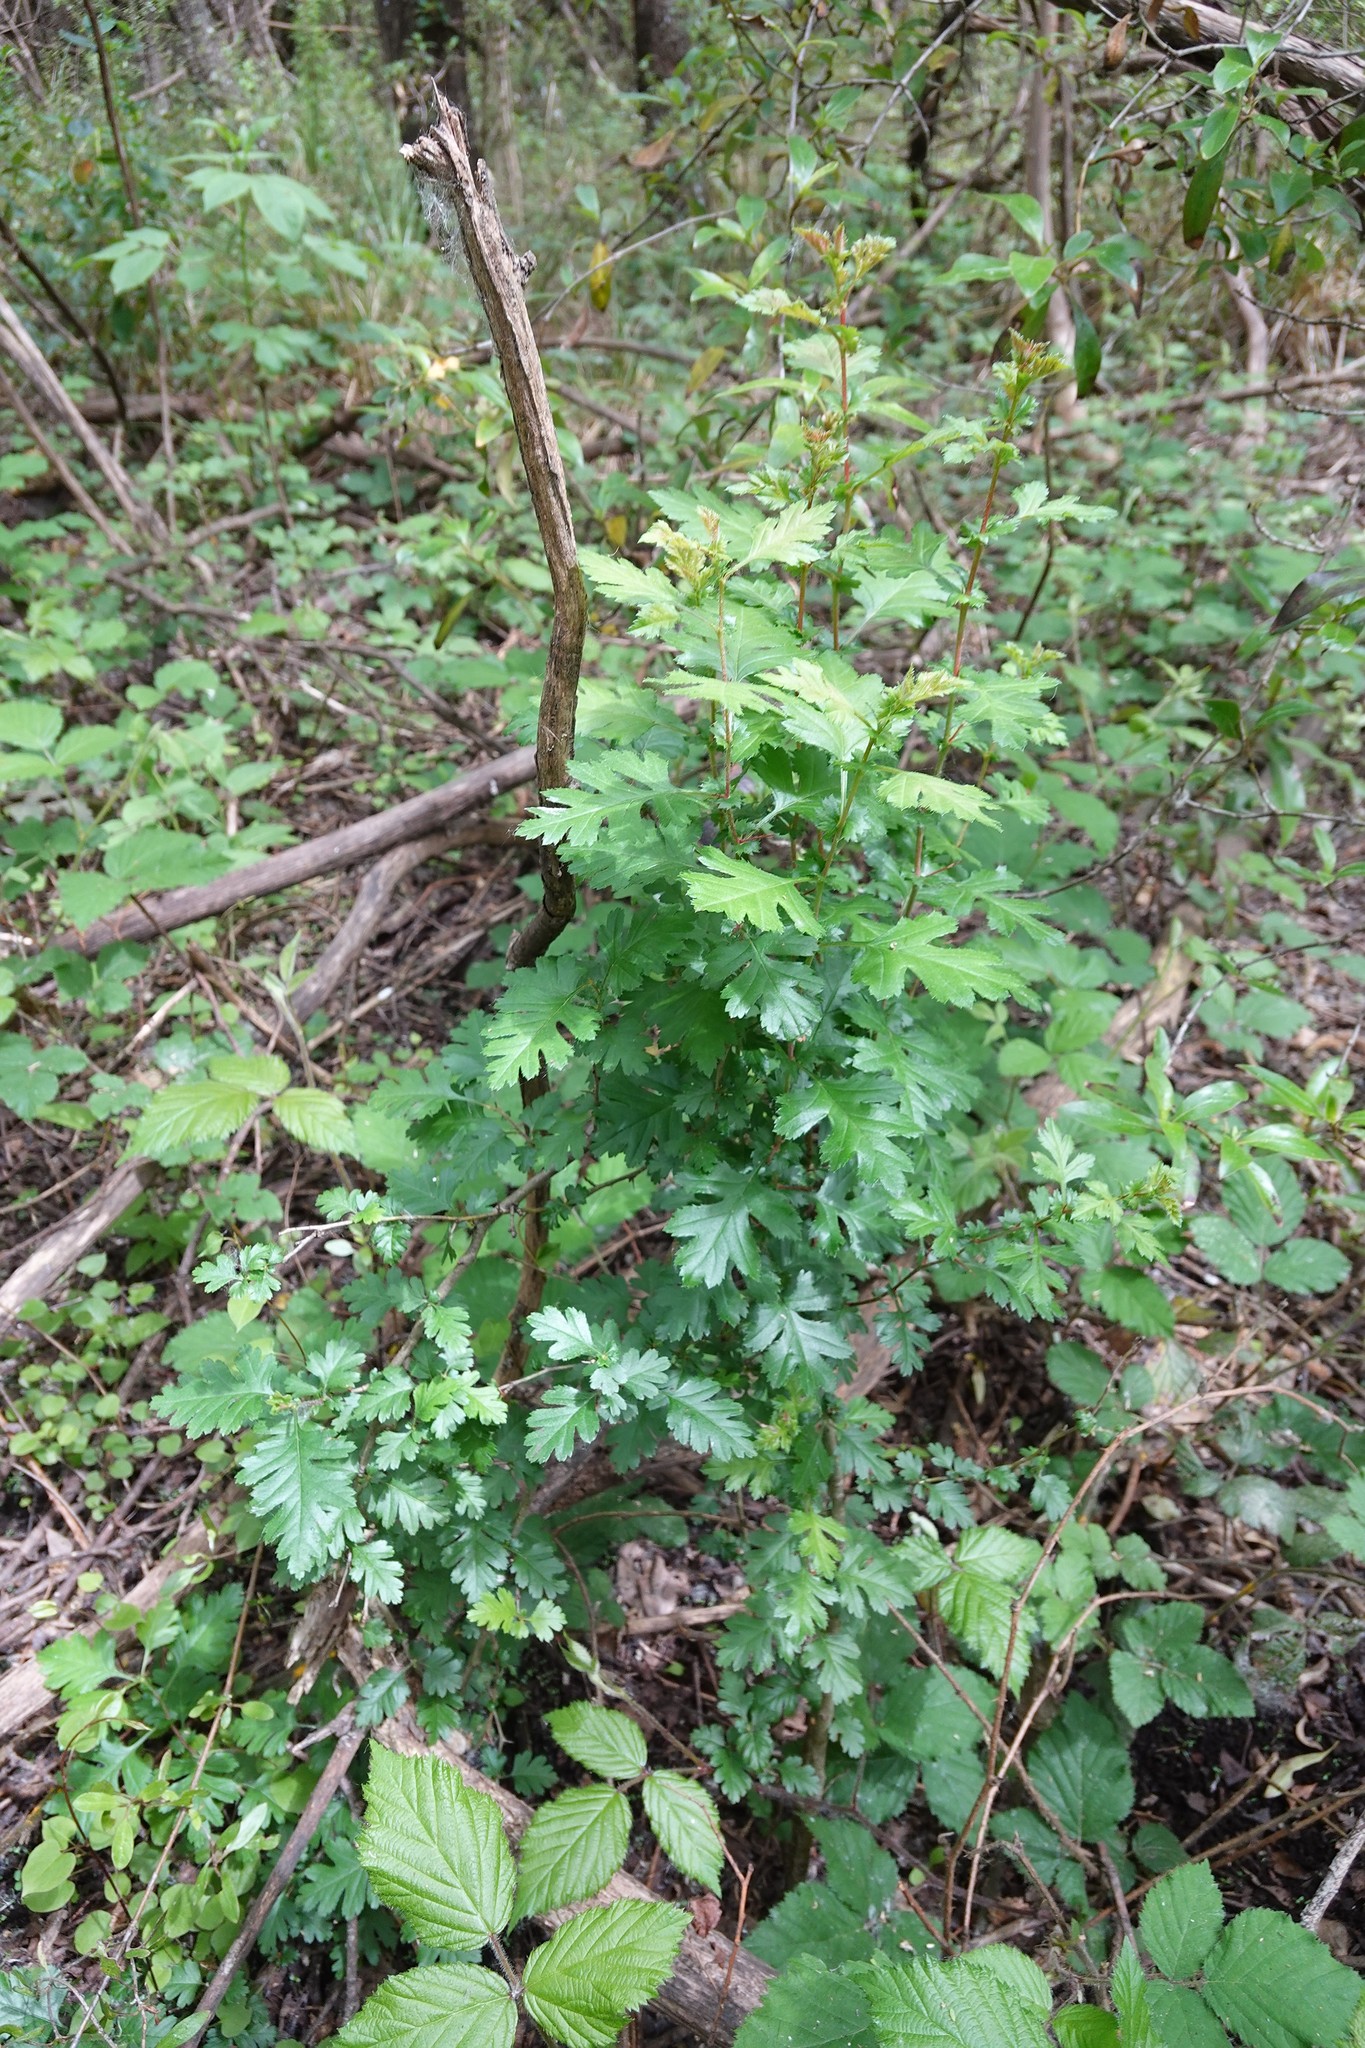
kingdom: Plantae
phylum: Tracheophyta
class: Magnoliopsida
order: Rosales
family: Rosaceae
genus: Crataegus
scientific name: Crataegus monogyna
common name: Hawthorn
